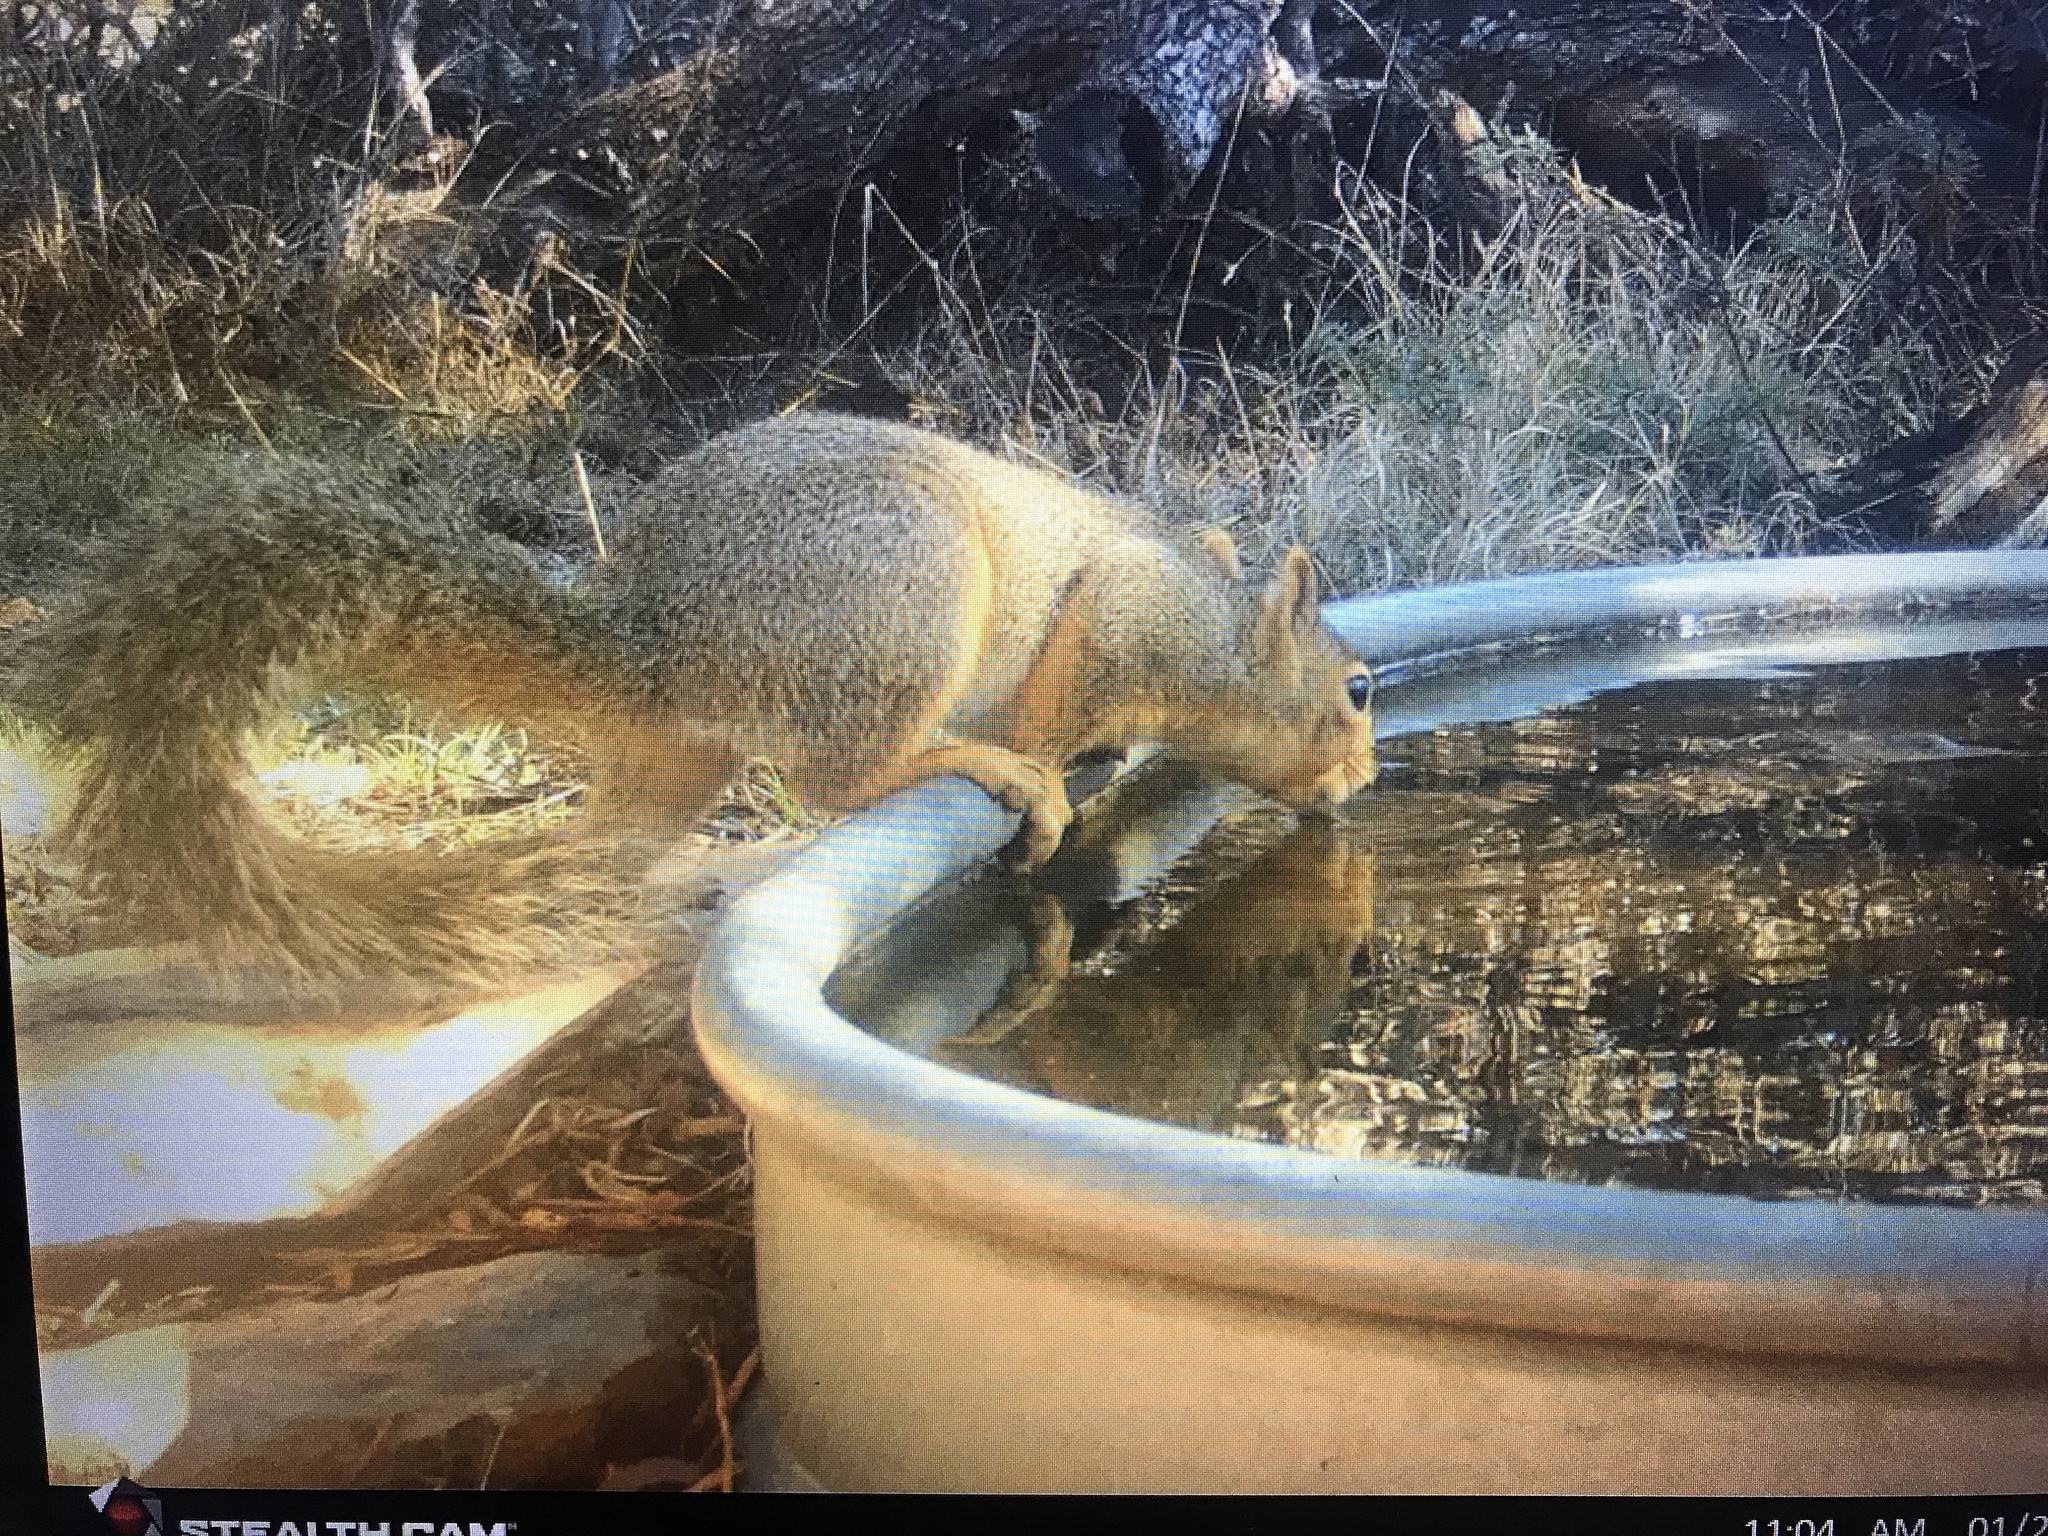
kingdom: Animalia
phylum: Chordata
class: Mammalia
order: Rodentia
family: Sciuridae
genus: Sciurus
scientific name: Sciurus niger
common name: Fox squirrel
